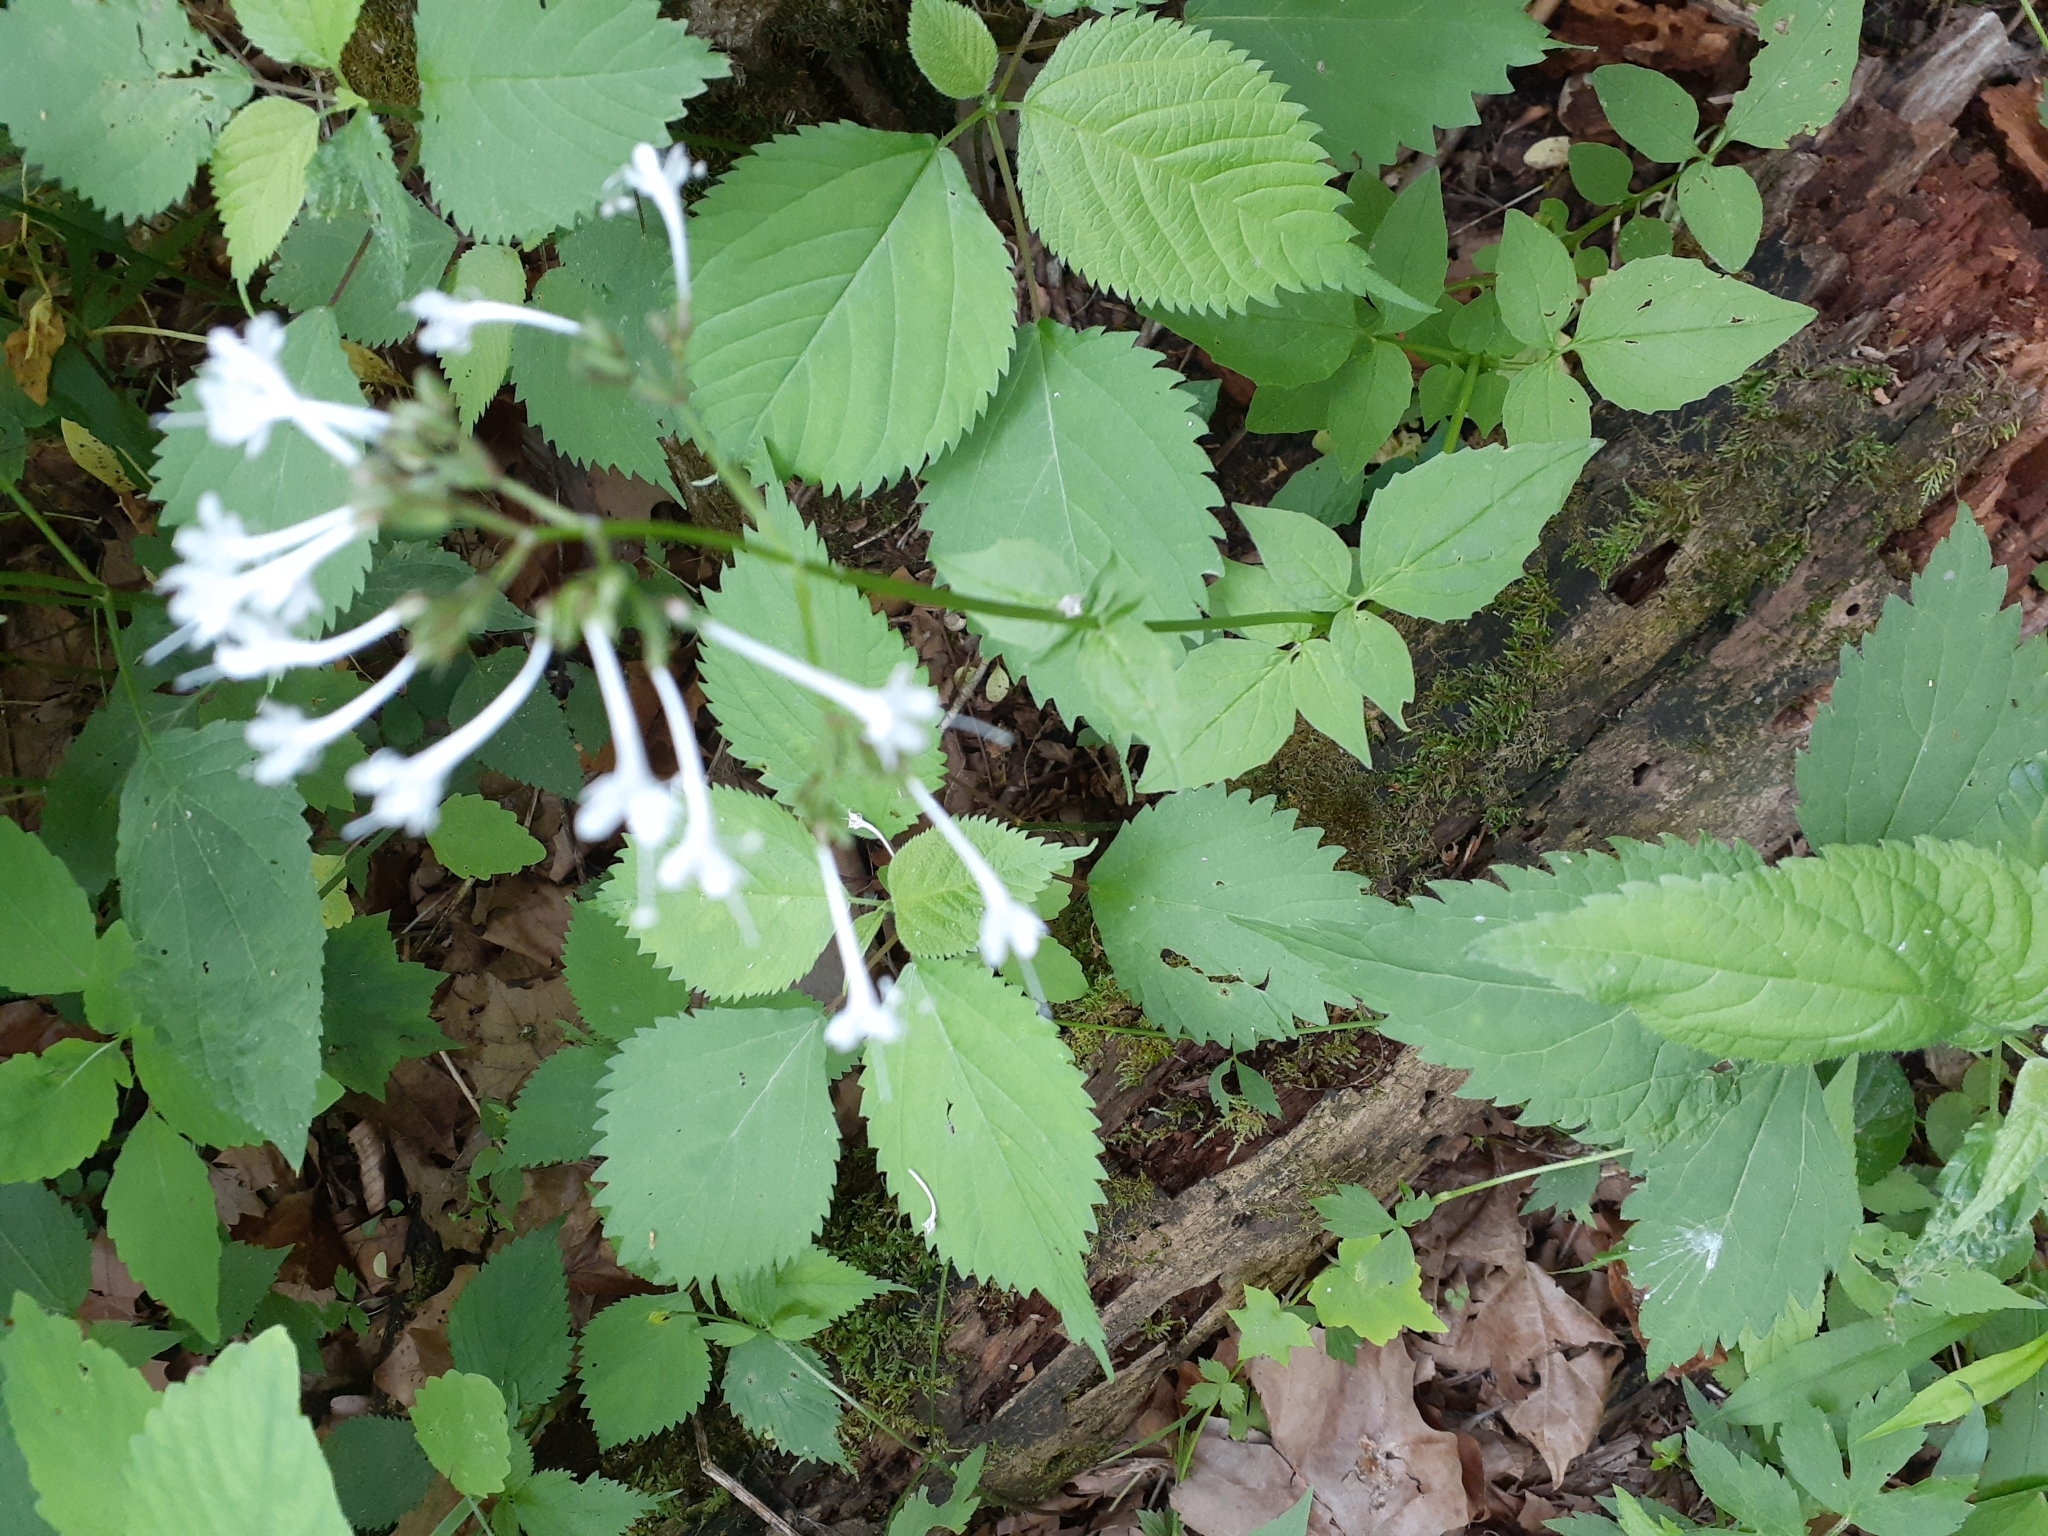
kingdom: Plantae
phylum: Tracheophyta
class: Magnoliopsida
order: Dipsacales
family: Caprifoliaceae
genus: Valeriana
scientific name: Valeriana pauciflora
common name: Long-tube valeriana
